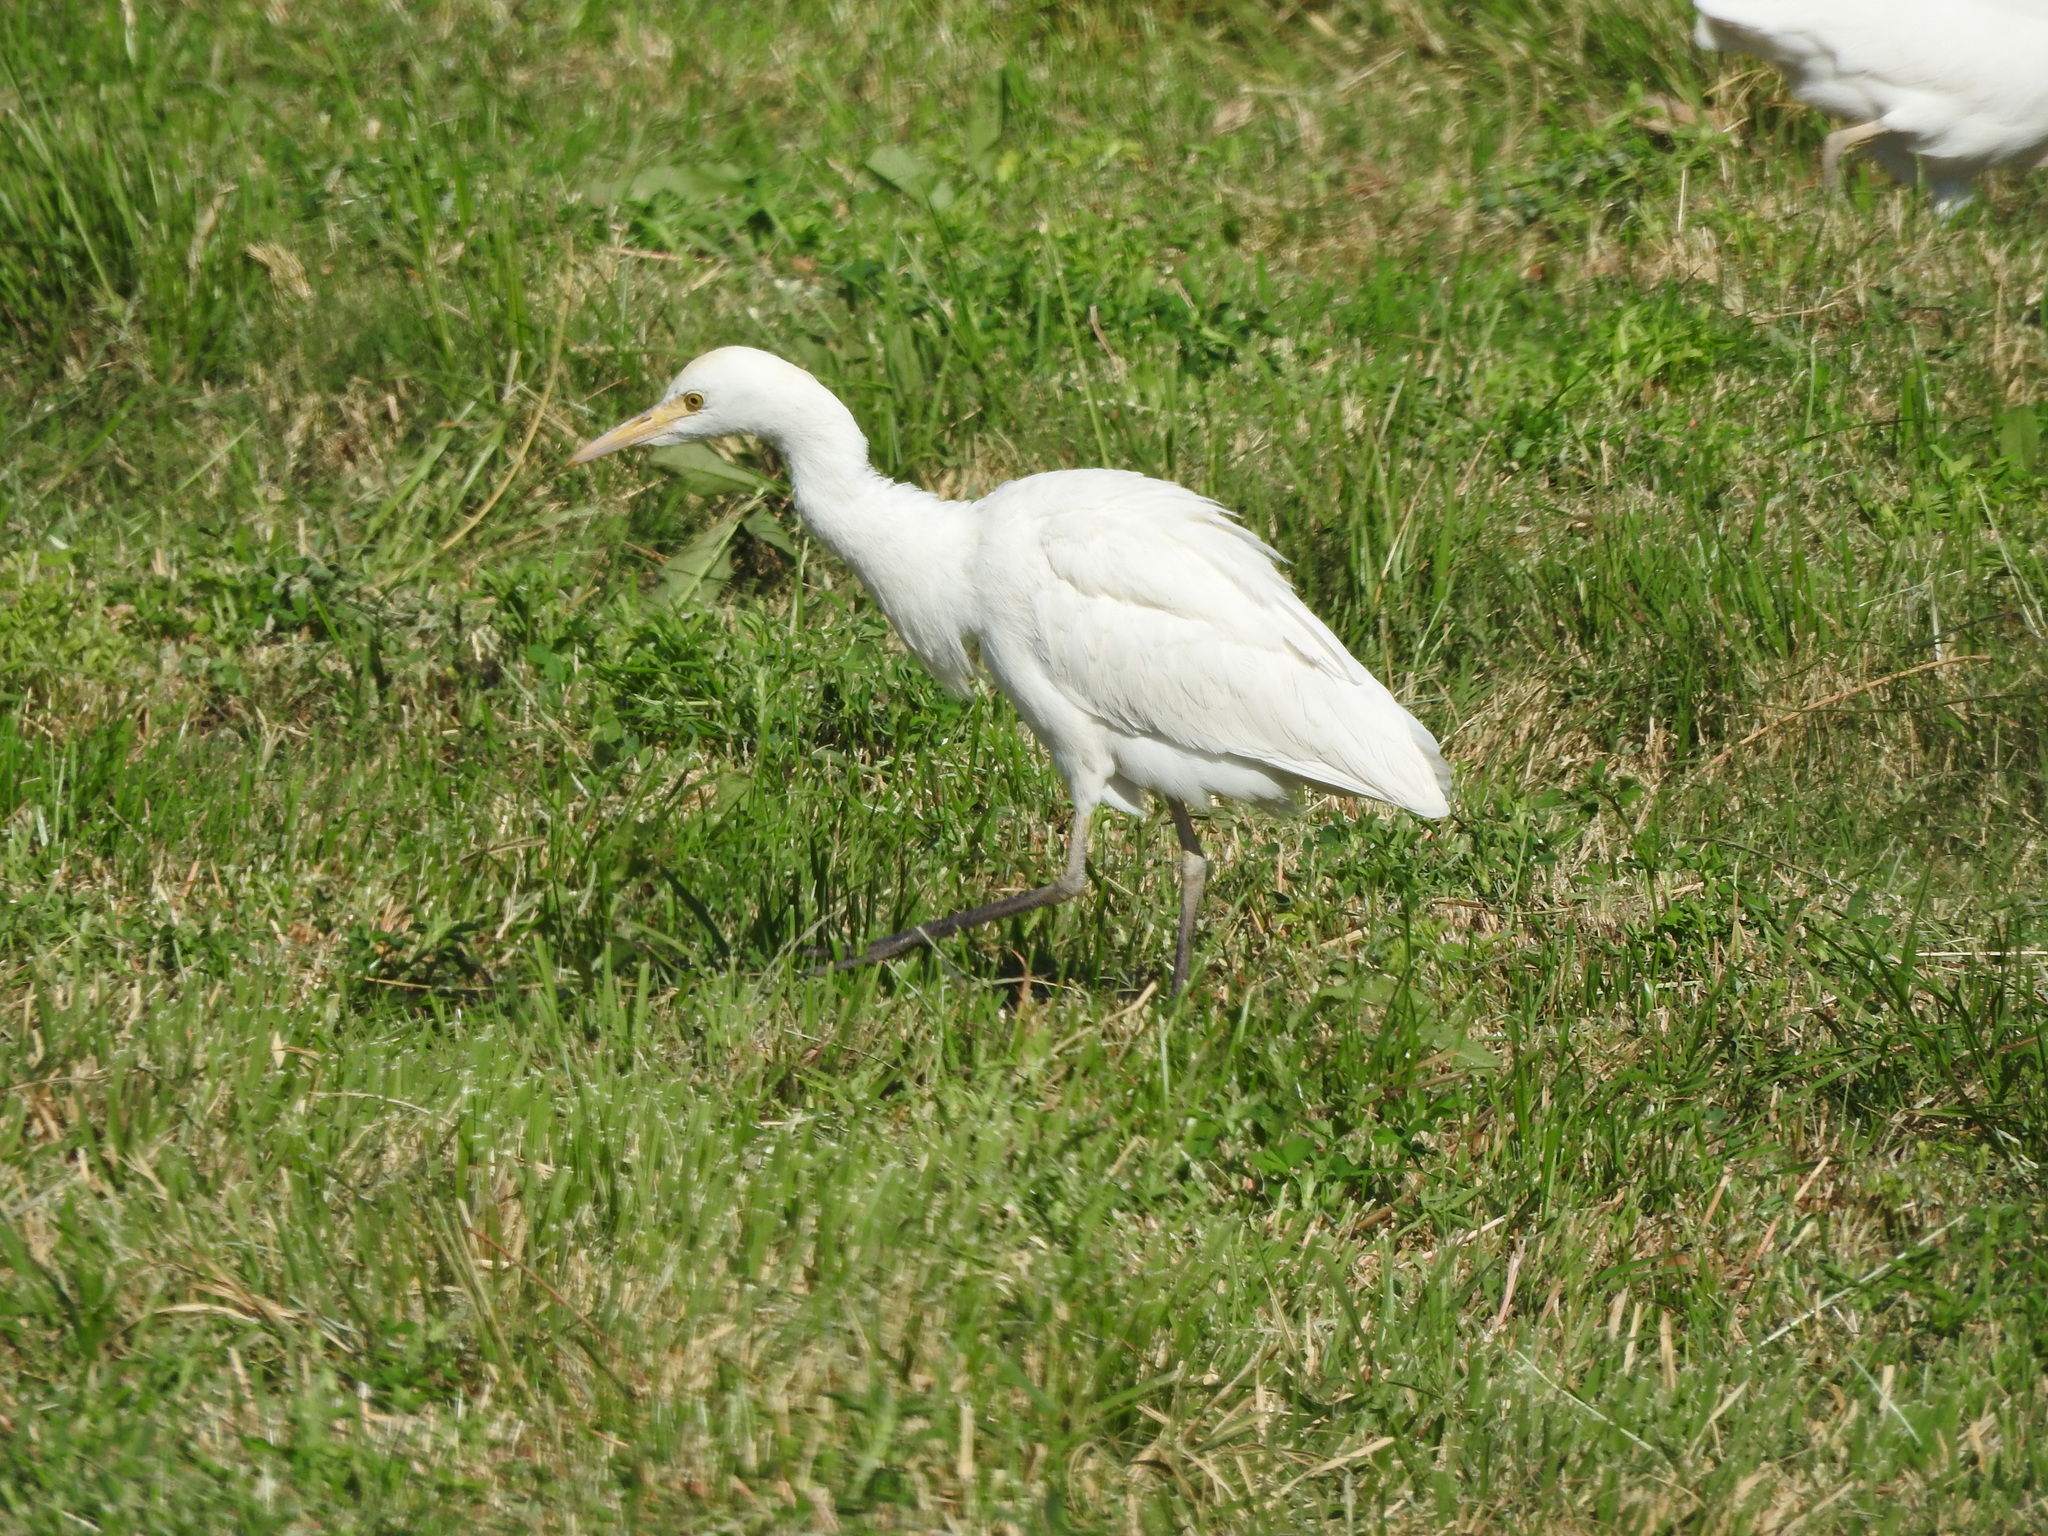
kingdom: Animalia
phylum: Chordata
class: Aves
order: Pelecaniformes
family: Ardeidae
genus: Bubulcus
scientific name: Bubulcus ibis
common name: Cattle egret
